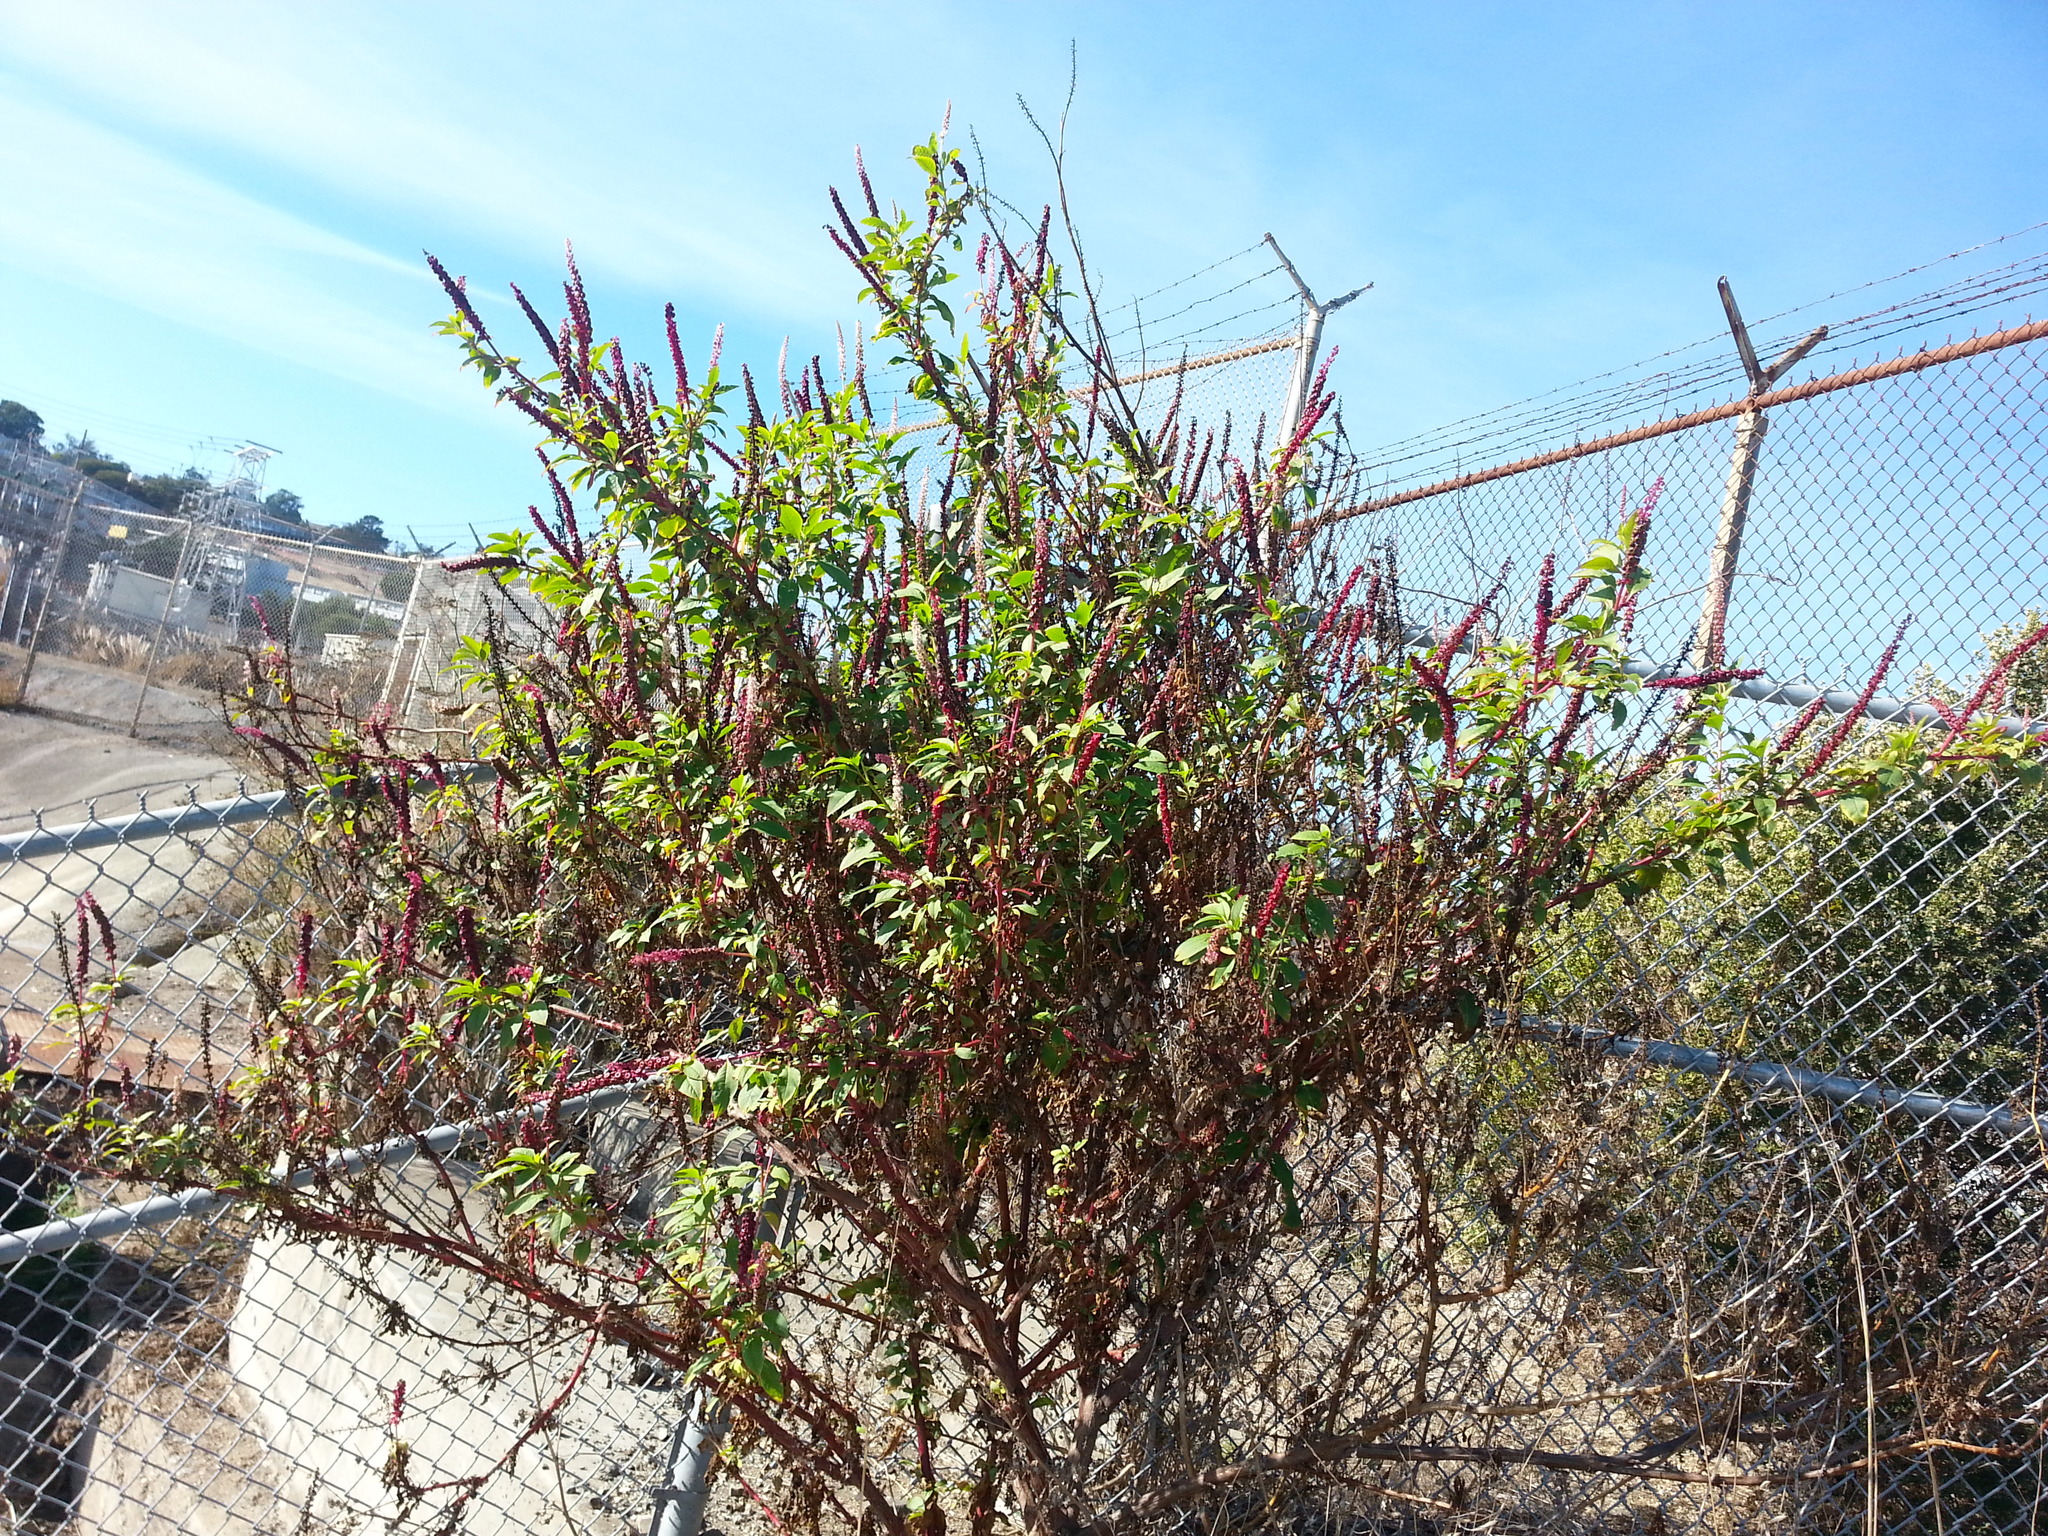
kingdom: Plantae
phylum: Tracheophyta
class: Magnoliopsida
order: Caryophyllales
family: Phytolaccaceae
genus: Phytolacca
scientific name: Phytolacca americana
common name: American pokeweed
